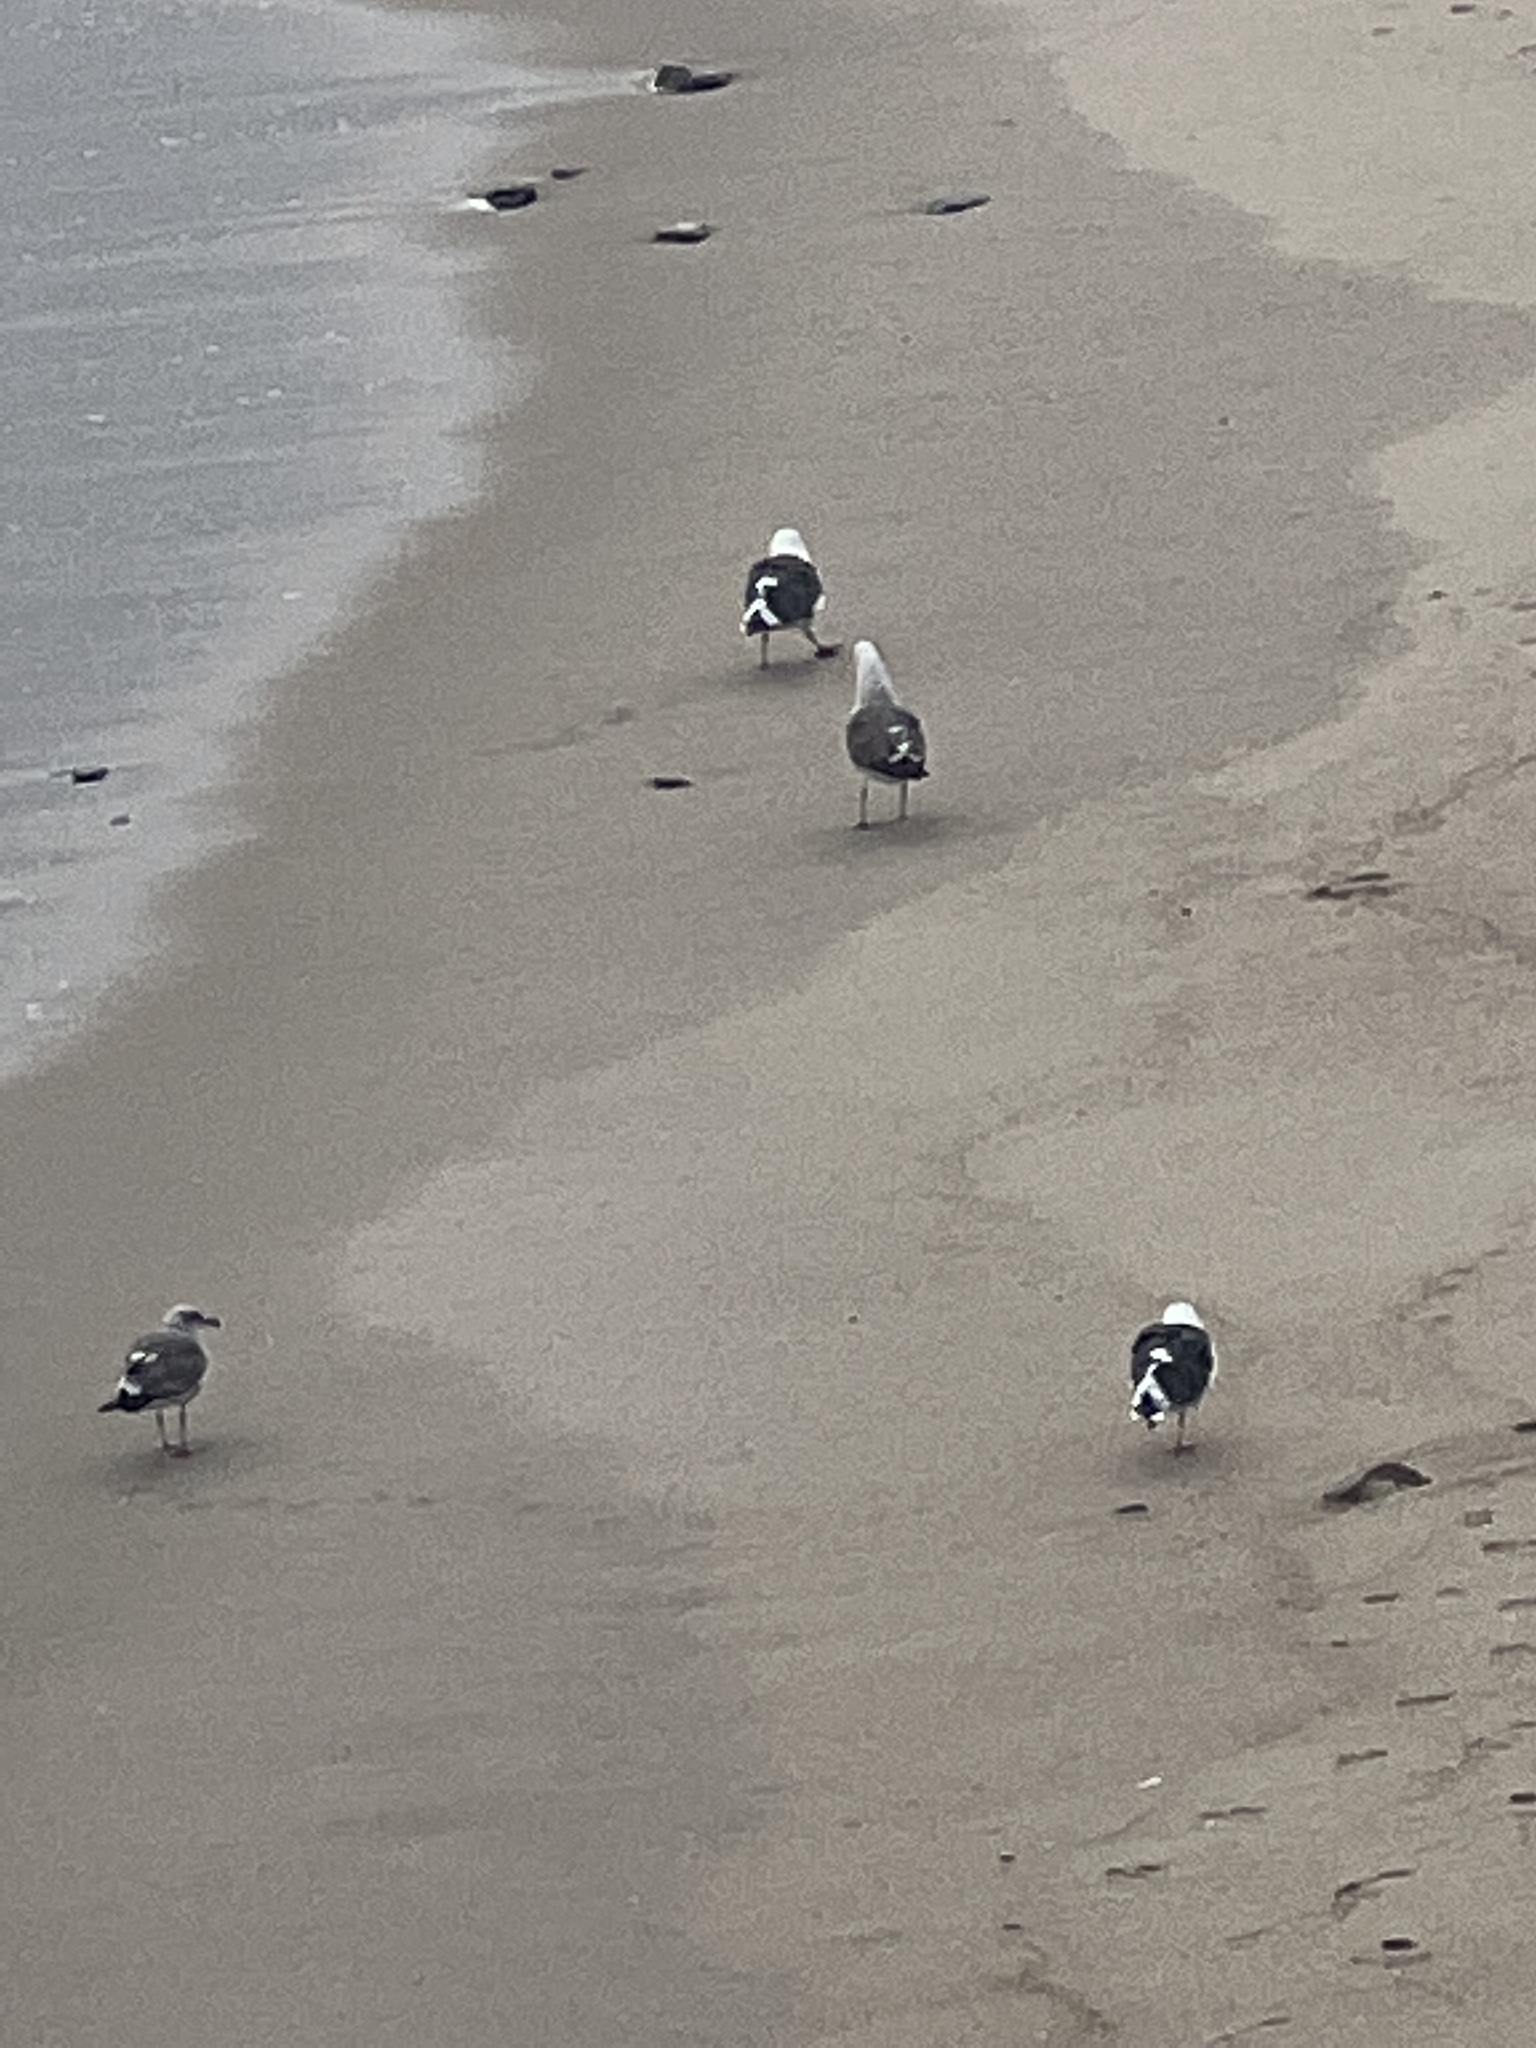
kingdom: Animalia
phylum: Chordata
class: Aves
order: Charadriiformes
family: Laridae
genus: Larus
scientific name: Larus occidentalis
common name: Western gull
